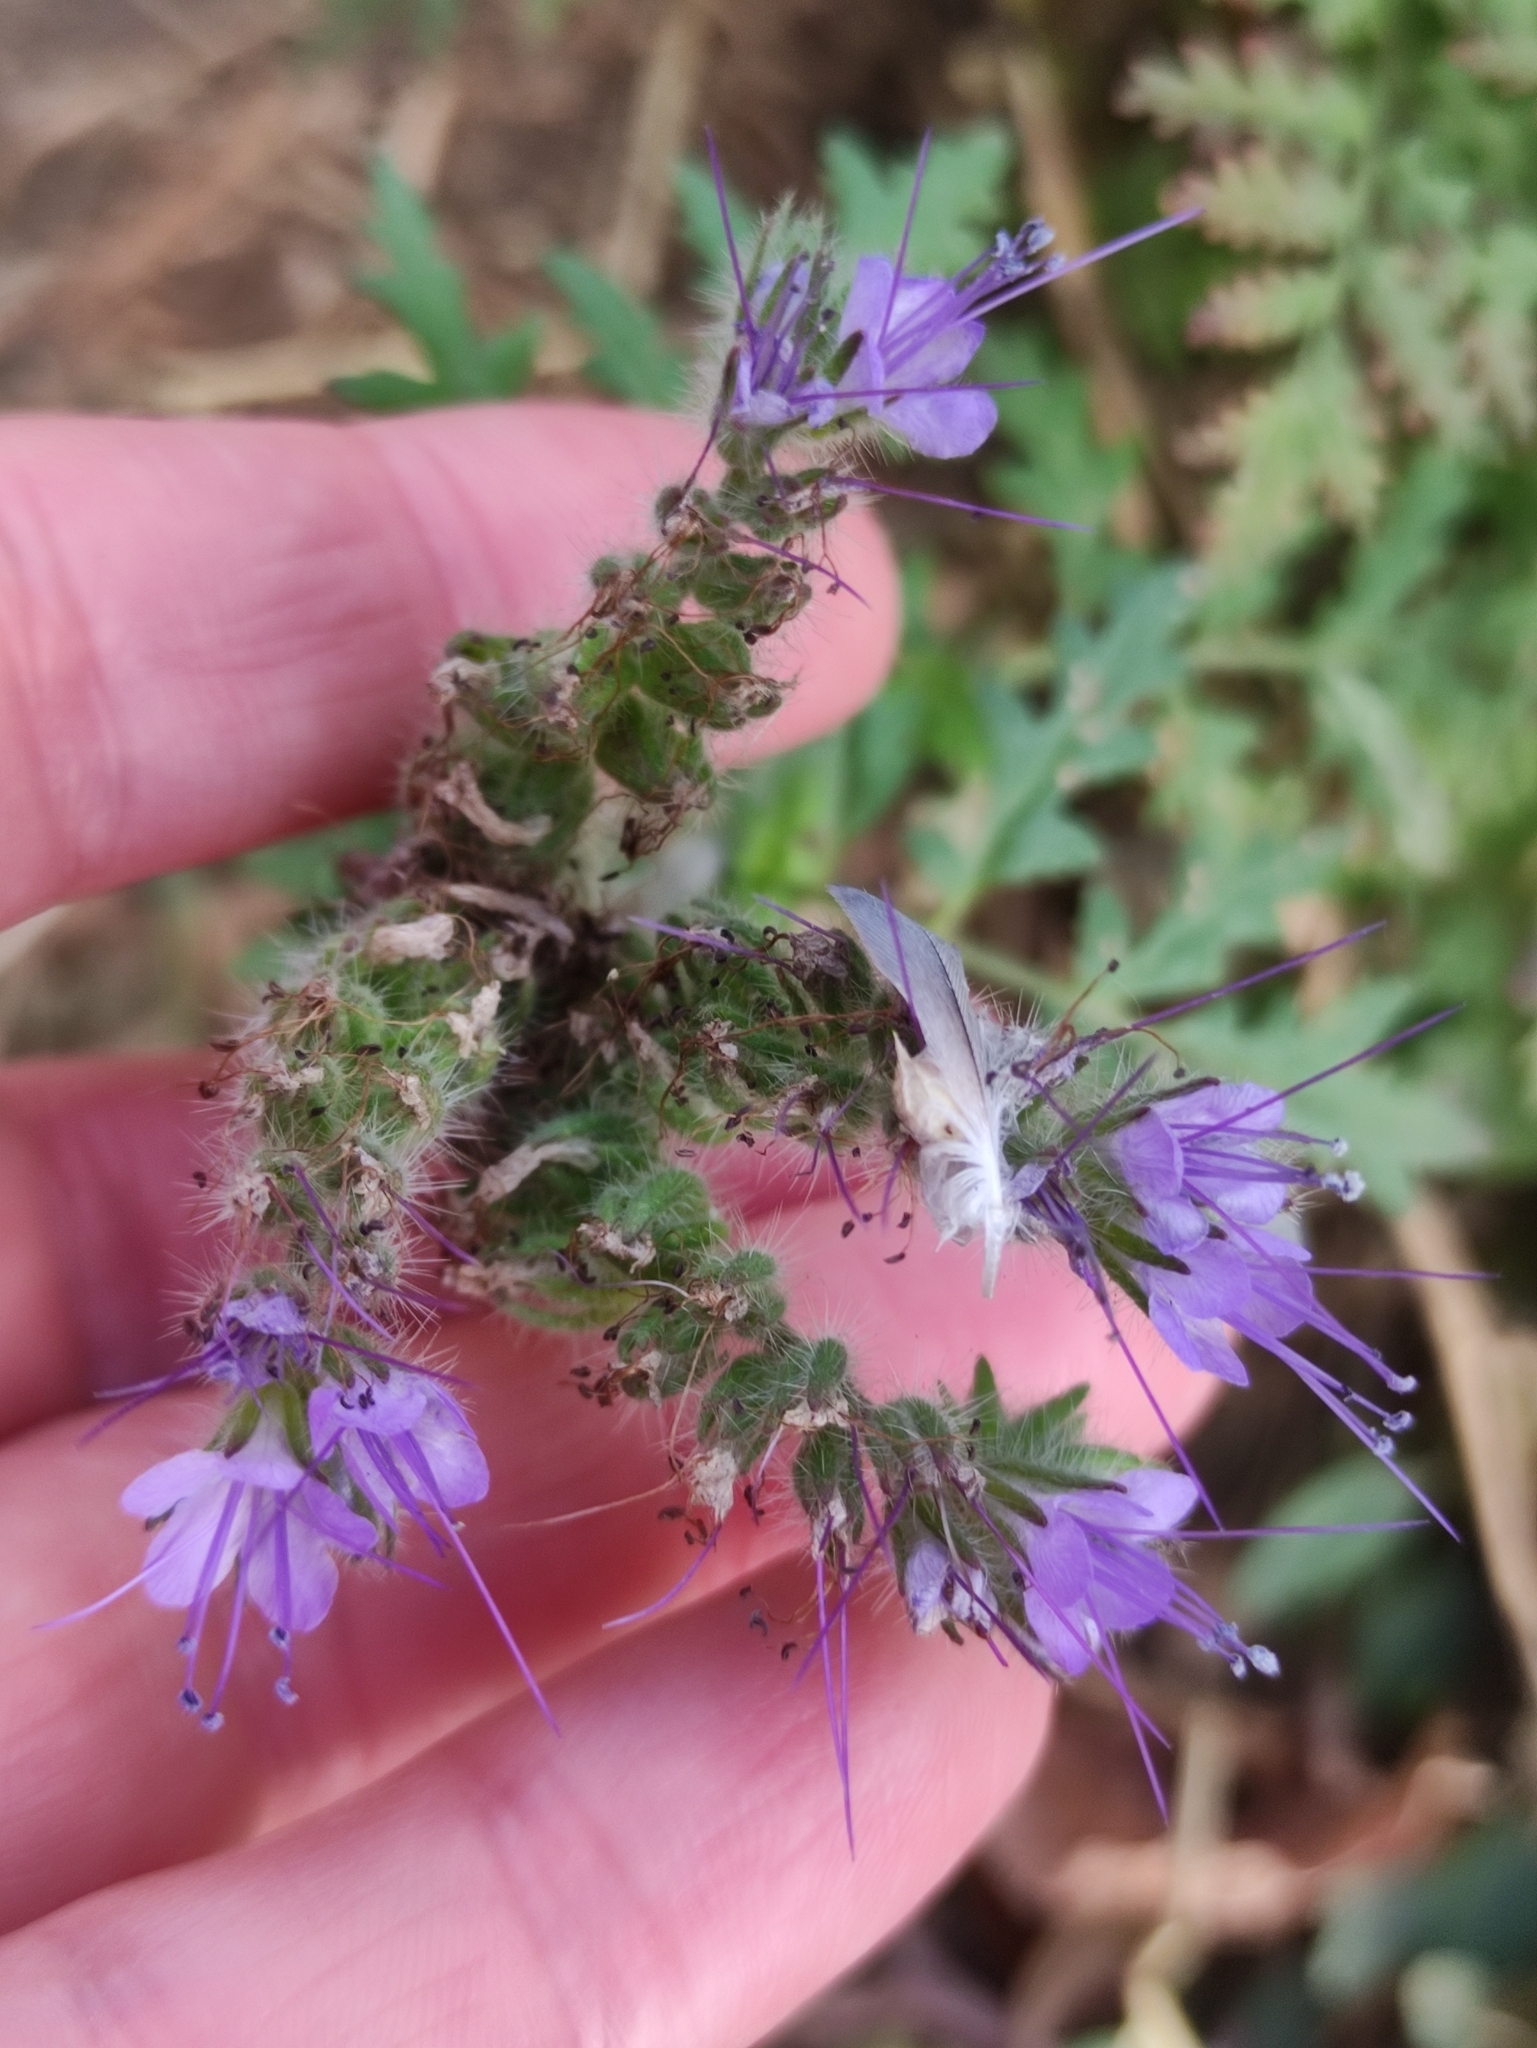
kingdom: Plantae
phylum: Tracheophyta
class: Magnoliopsida
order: Boraginales
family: Hydrophyllaceae
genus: Phacelia
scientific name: Phacelia tanacetifolia
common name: Phacelia
